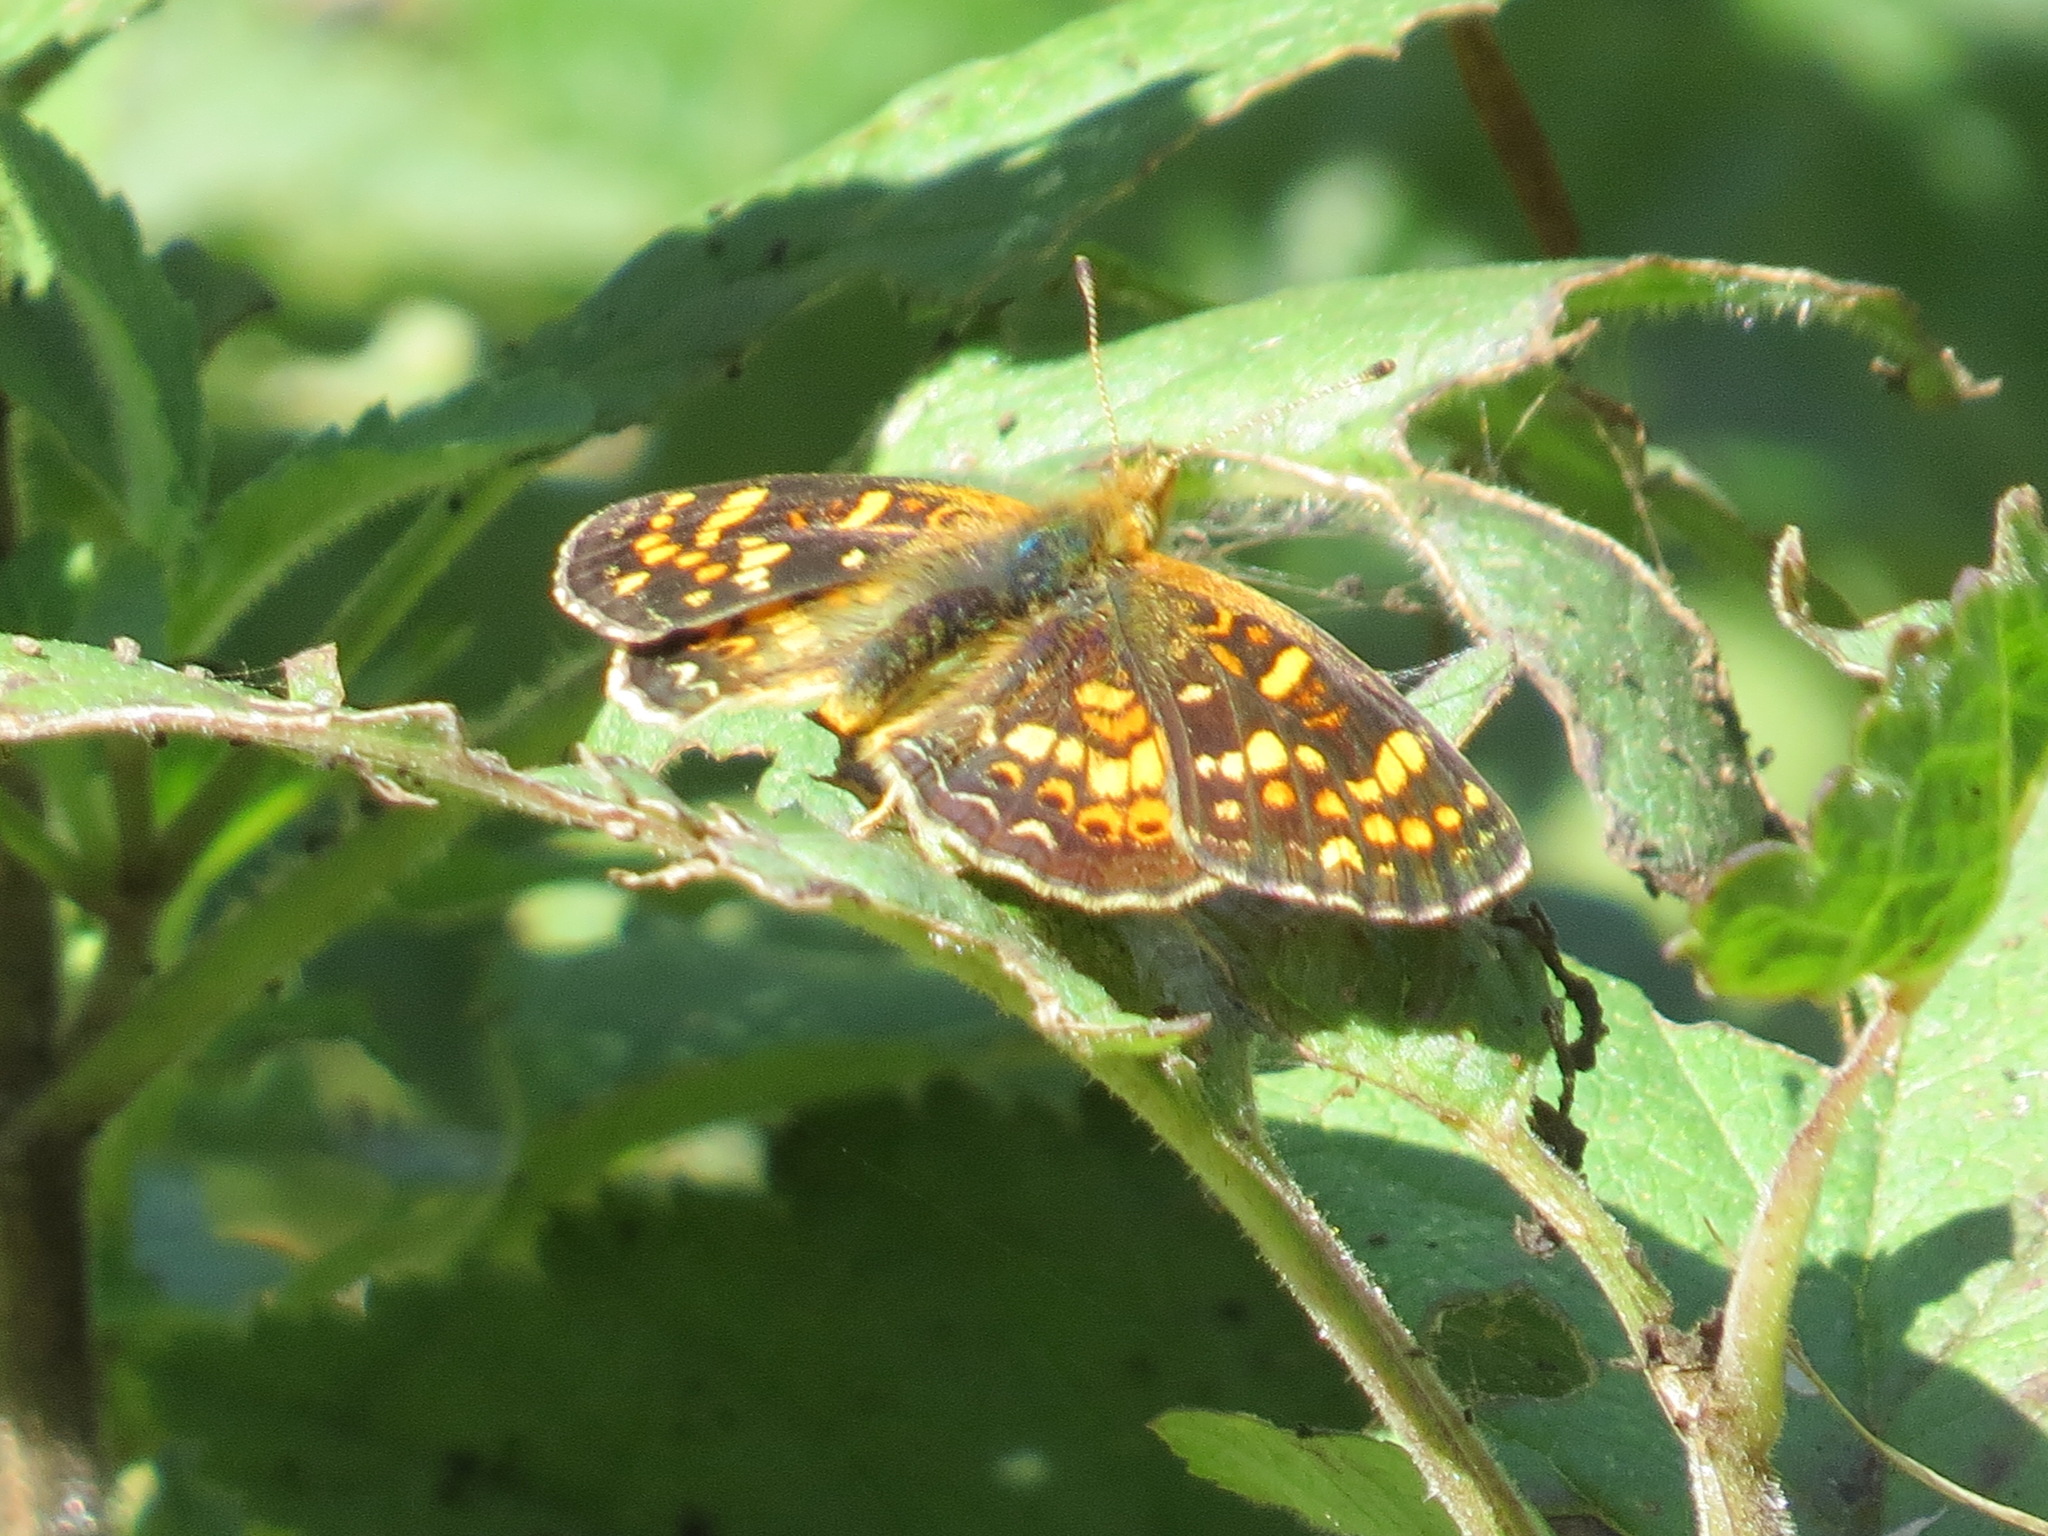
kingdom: Animalia
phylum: Arthropoda
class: Insecta
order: Lepidoptera
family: Nymphalidae
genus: Phyciodes
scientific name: Phyciodes tharos
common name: Pearl crescent
